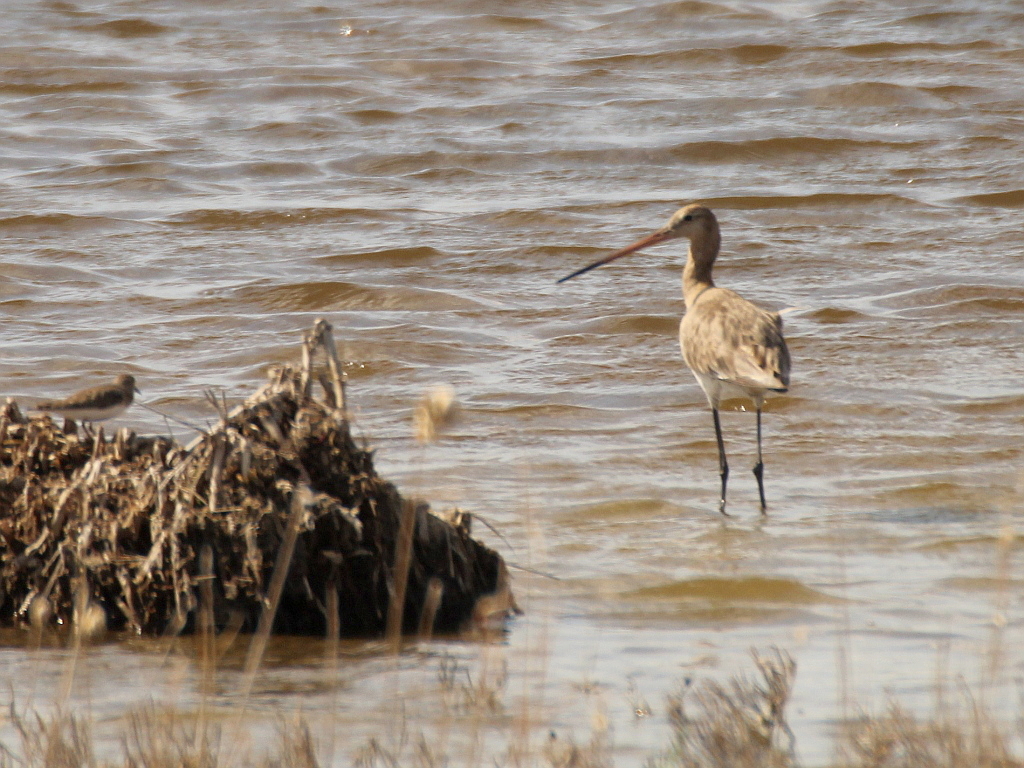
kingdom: Animalia
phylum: Chordata
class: Aves
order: Charadriiformes
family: Scolopacidae
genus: Limosa
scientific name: Limosa limosa
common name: Black-tailed godwit
